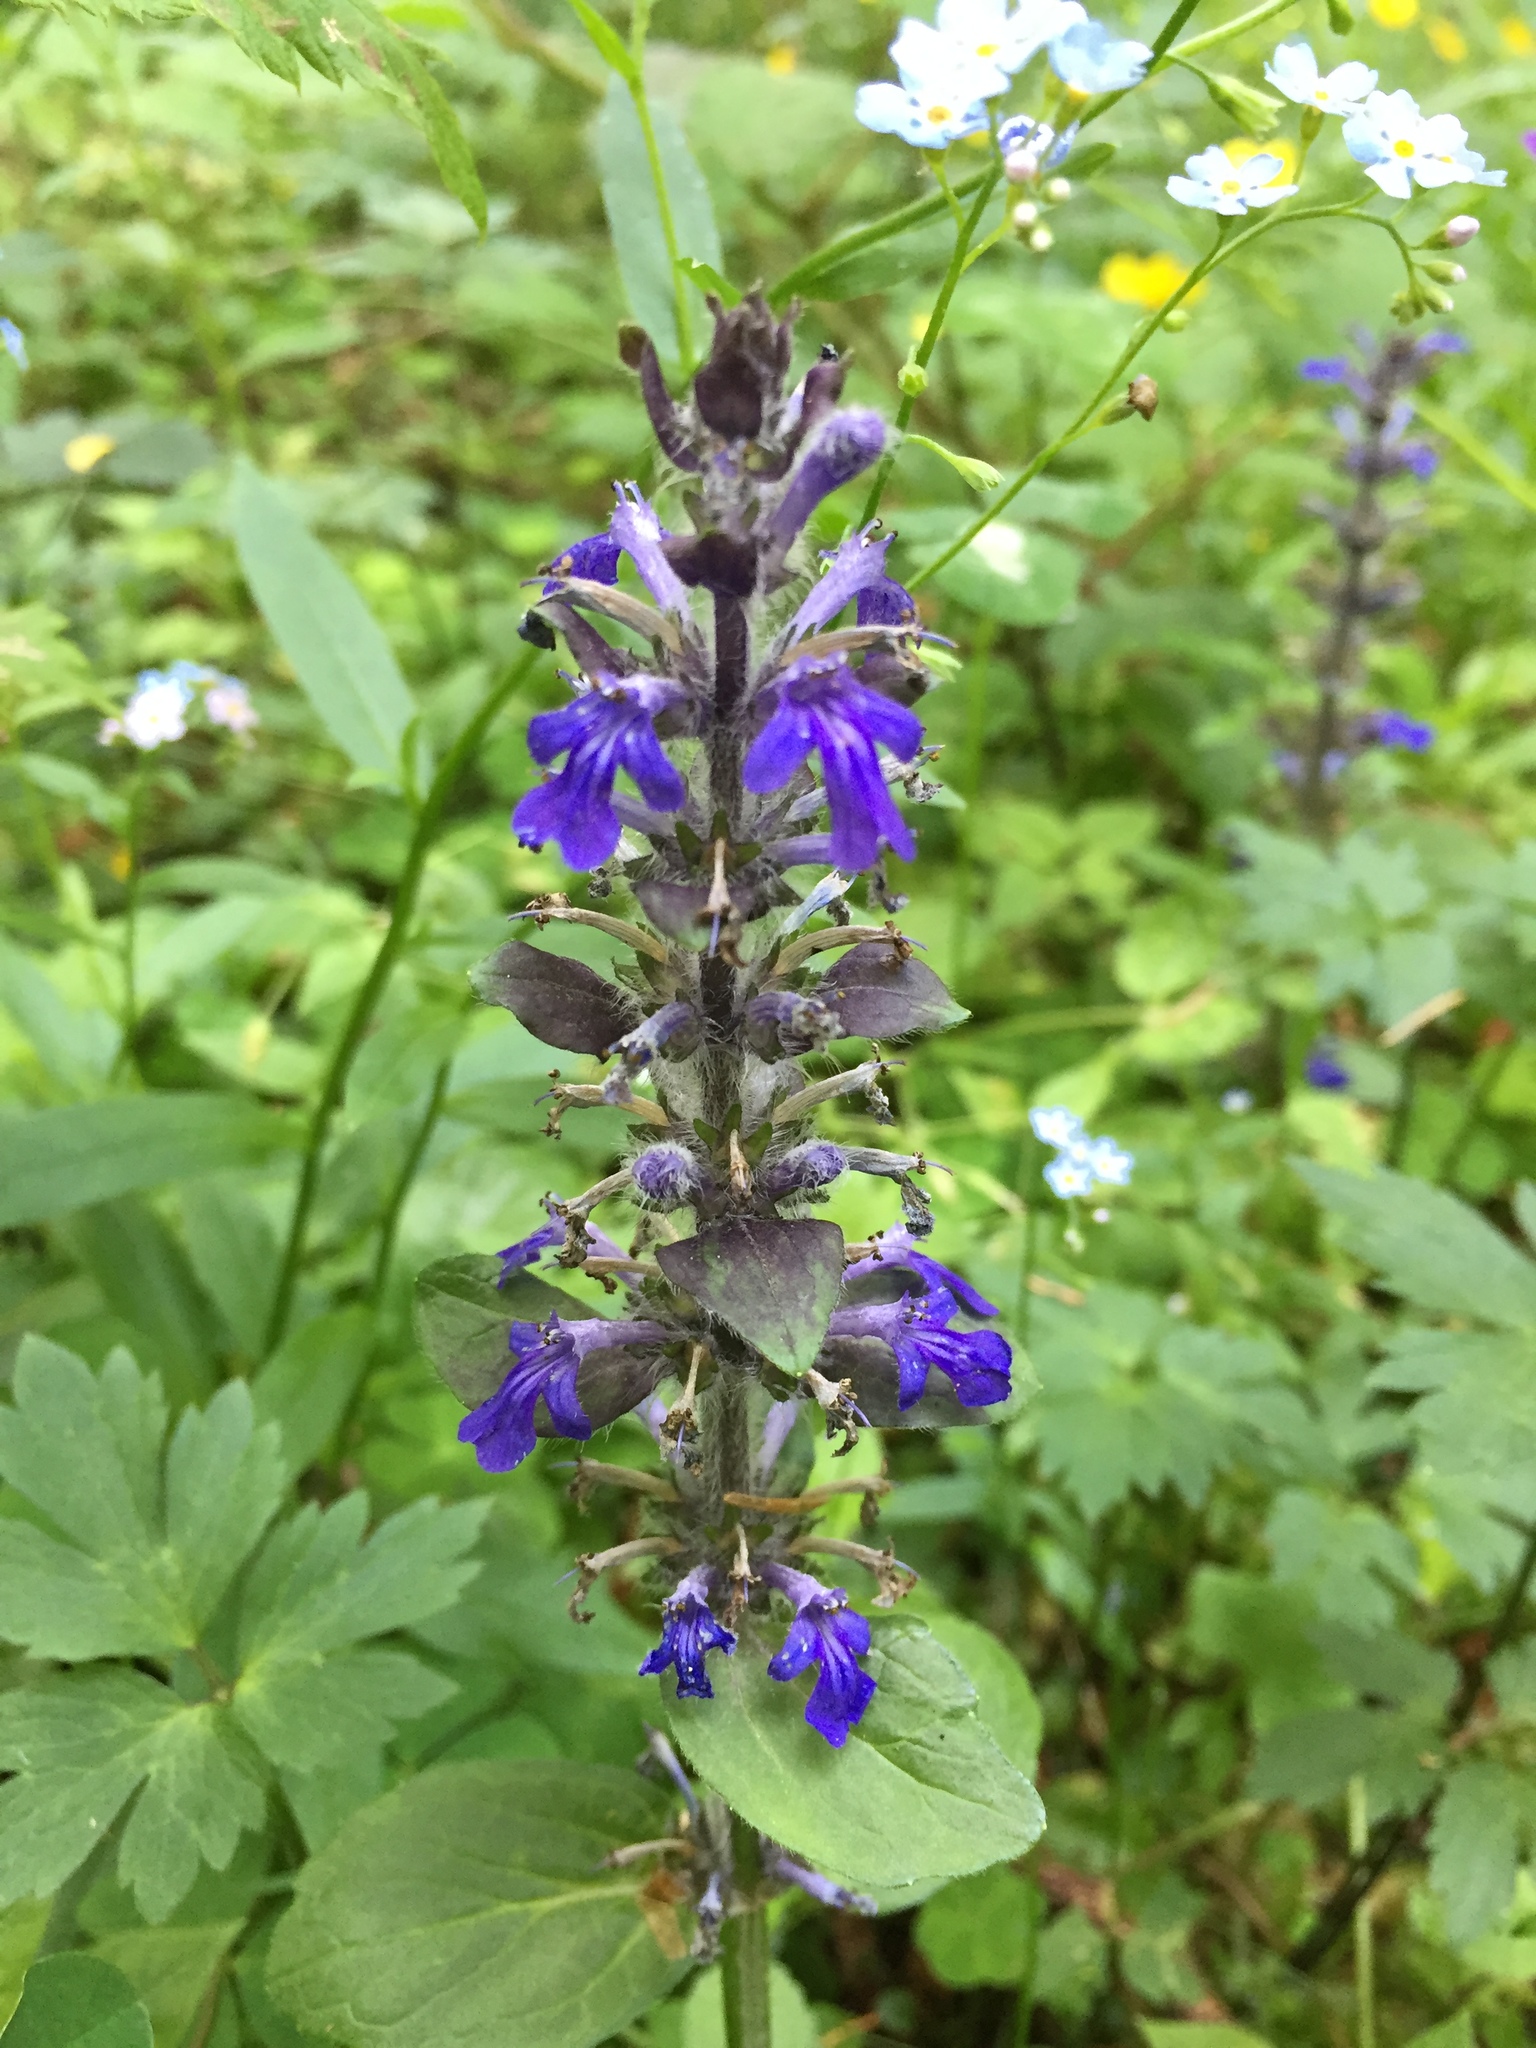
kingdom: Plantae
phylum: Tracheophyta
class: Magnoliopsida
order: Lamiales
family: Lamiaceae
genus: Ajuga
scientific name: Ajuga reptans
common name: Bugle
